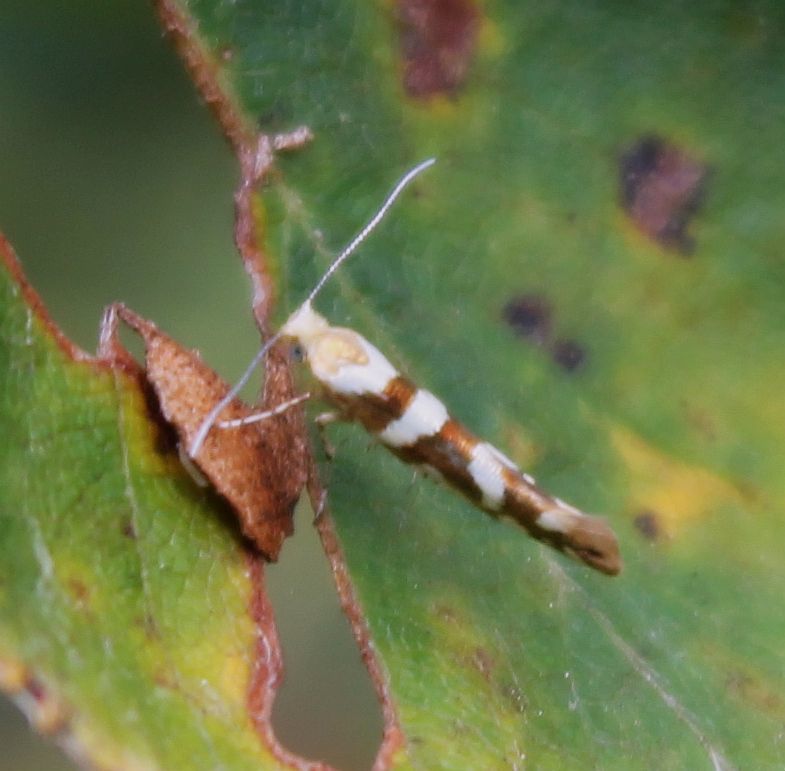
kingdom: Animalia
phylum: Arthropoda
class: Insecta
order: Lepidoptera
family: Argyresthiidae
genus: Argyresthia
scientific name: Argyresthia goedartella
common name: Golden argent
